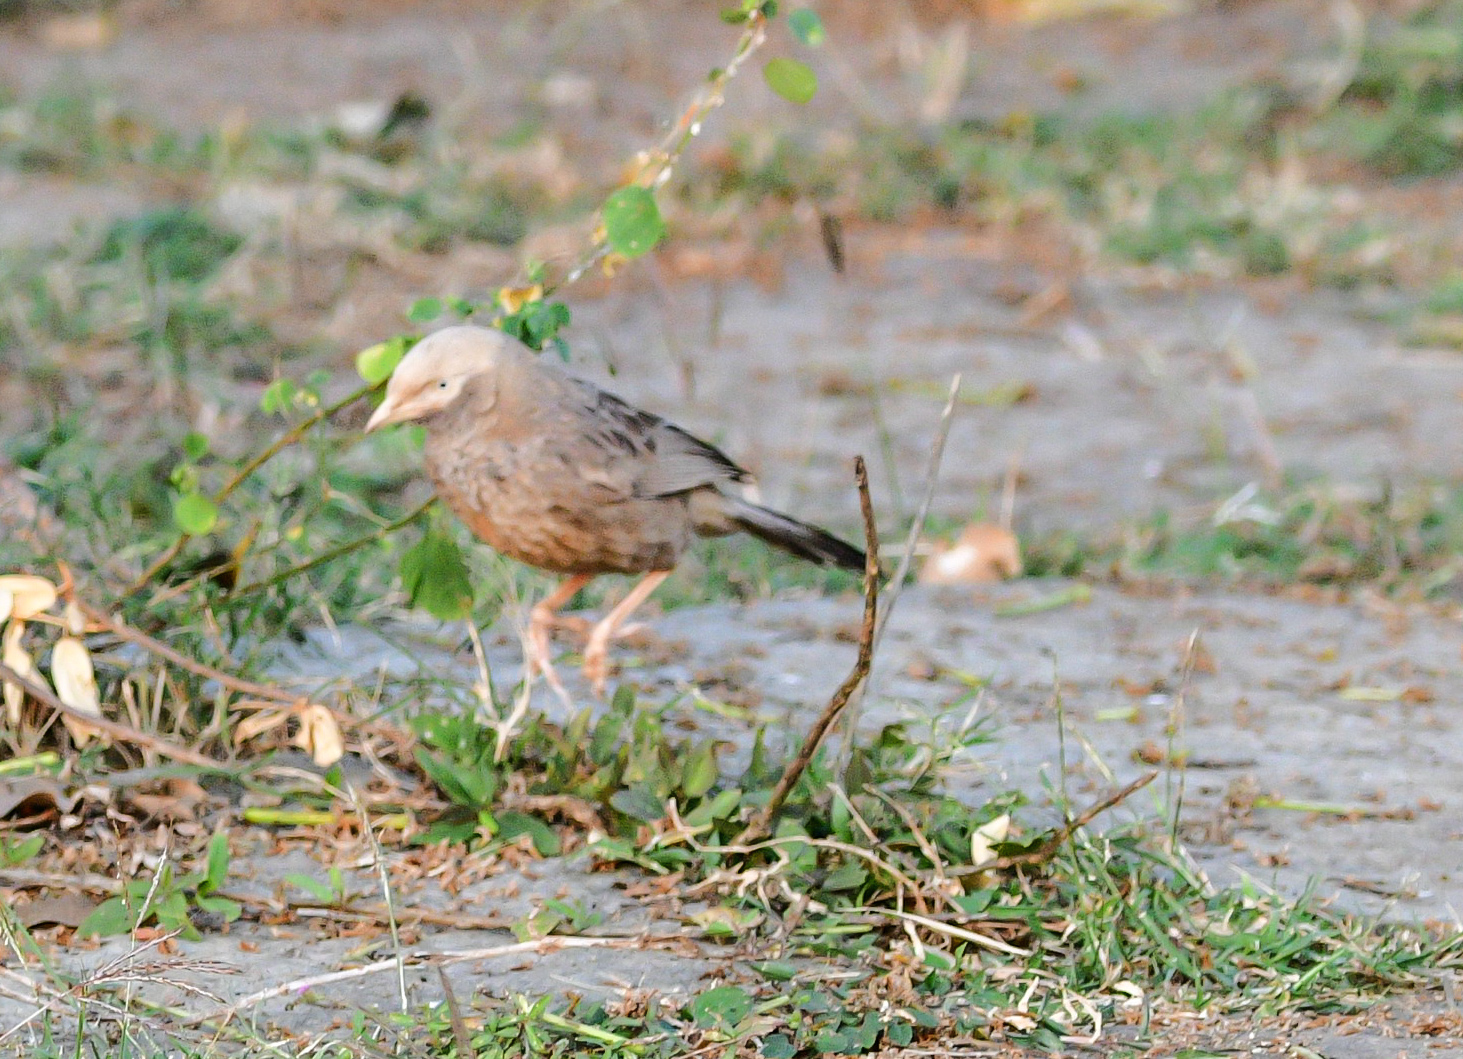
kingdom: Animalia
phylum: Chordata
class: Aves
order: Passeriformes
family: Leiothrichidae
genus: Turdoides
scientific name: Turdoides affinis
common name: Yellow-billed babbler
